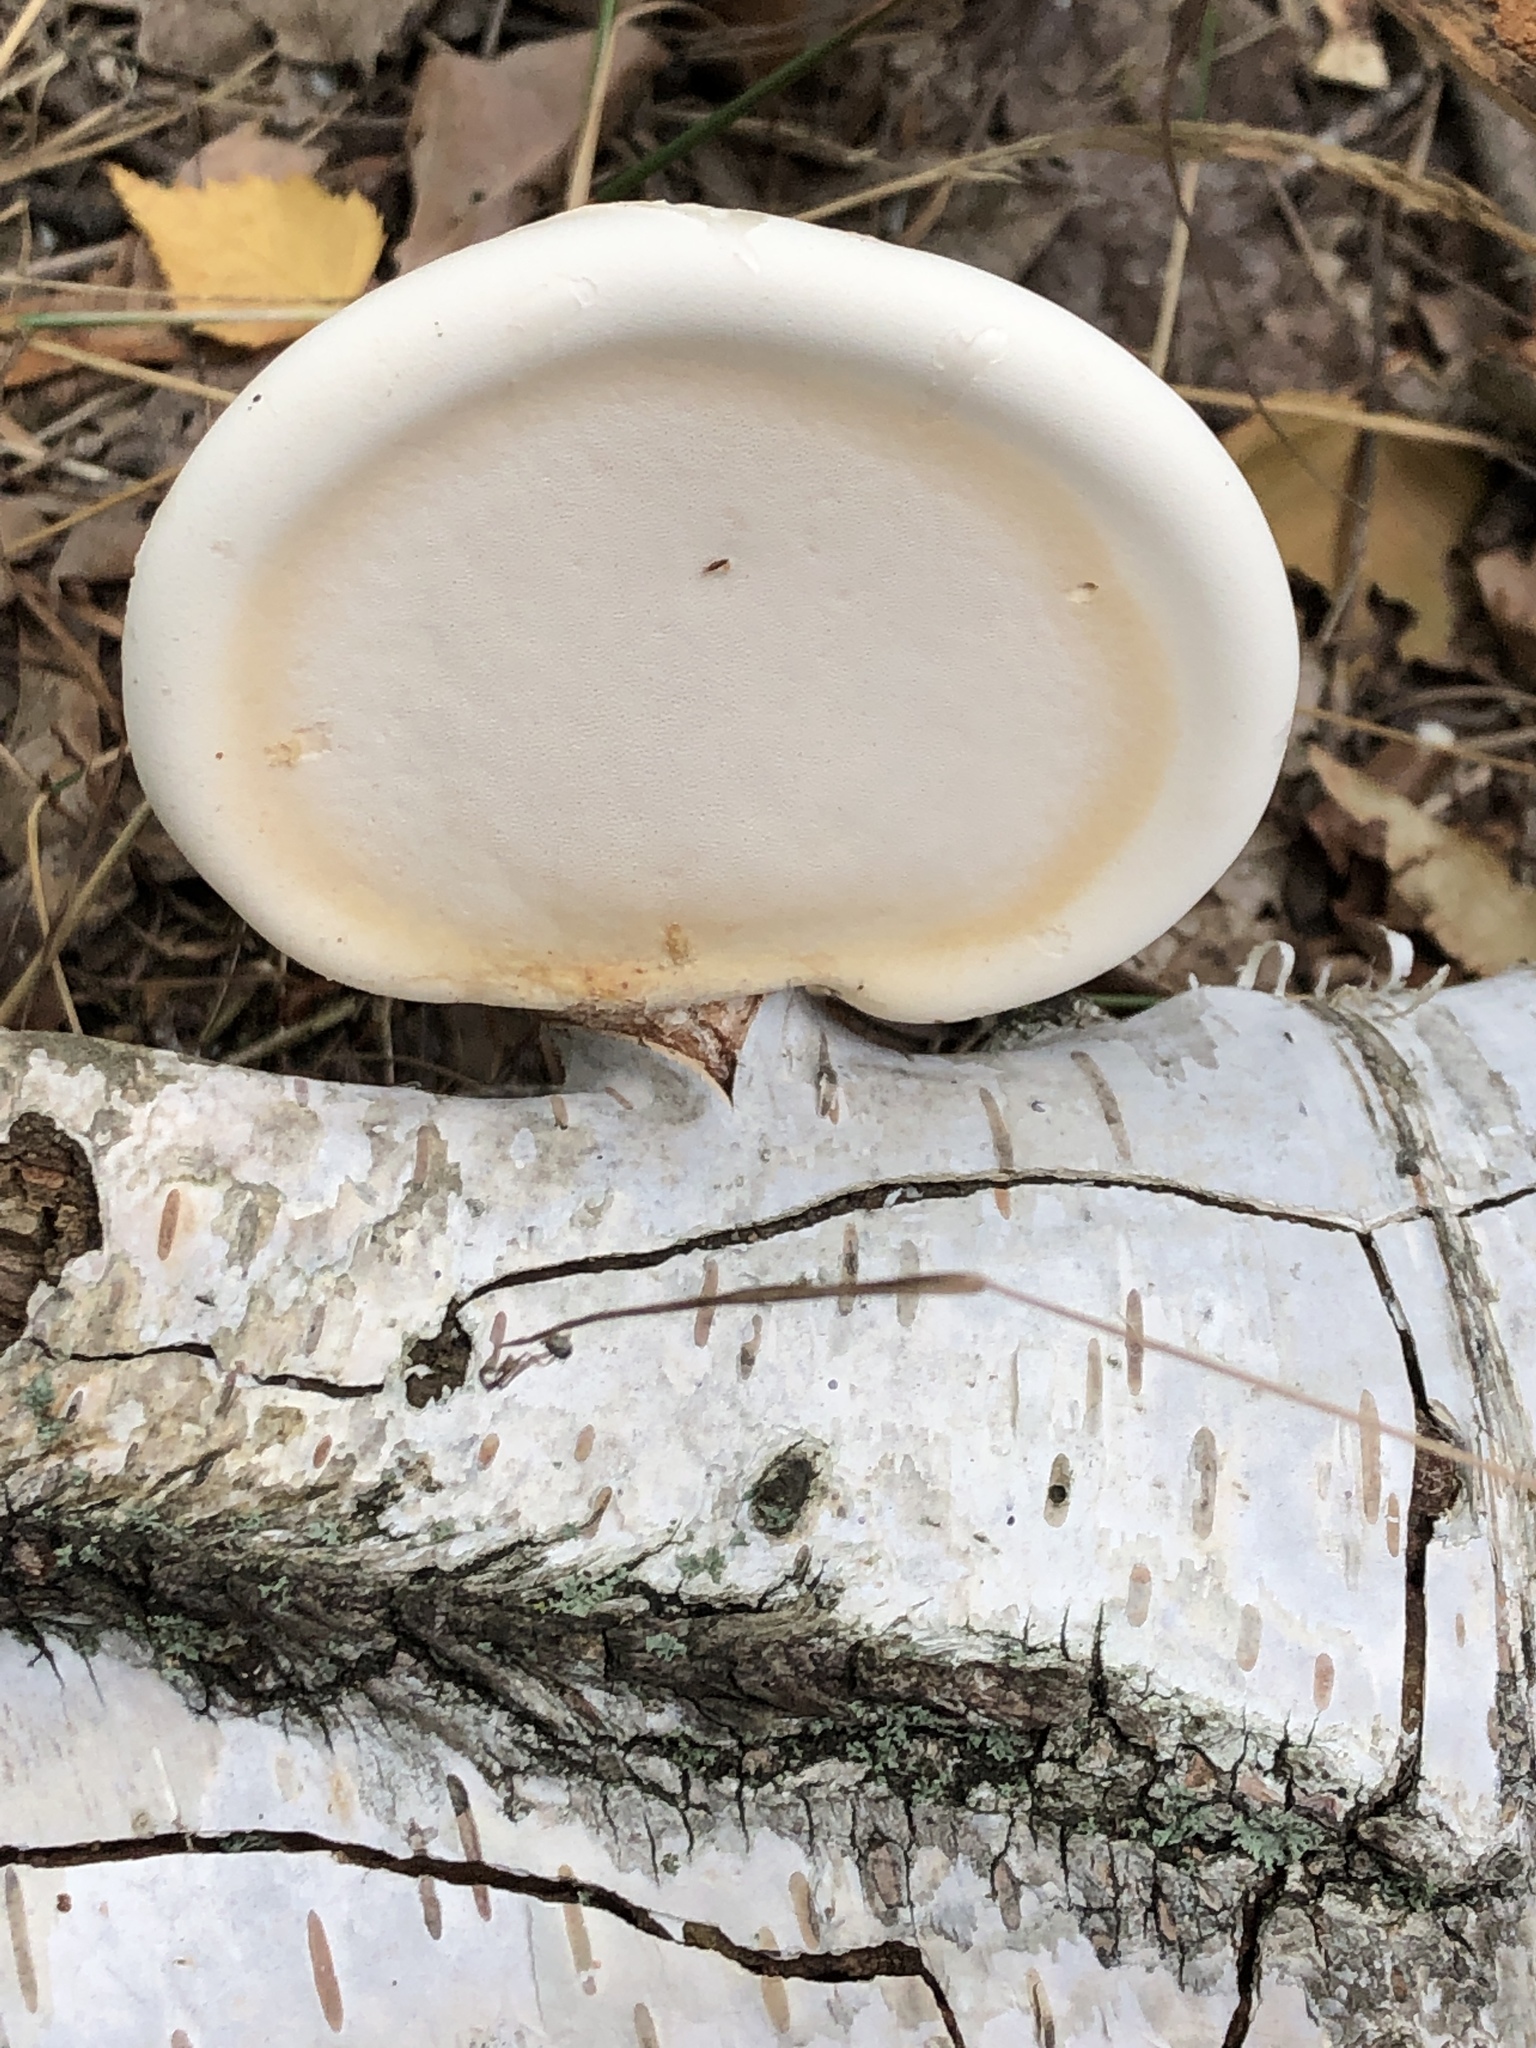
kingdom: Fungi
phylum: Basidiomycota
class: Agaricomycetes
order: Polyporales
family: Fomitopsidaceae
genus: Fomitopsis
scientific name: Fomitopsis betulina
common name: Birch polypore
